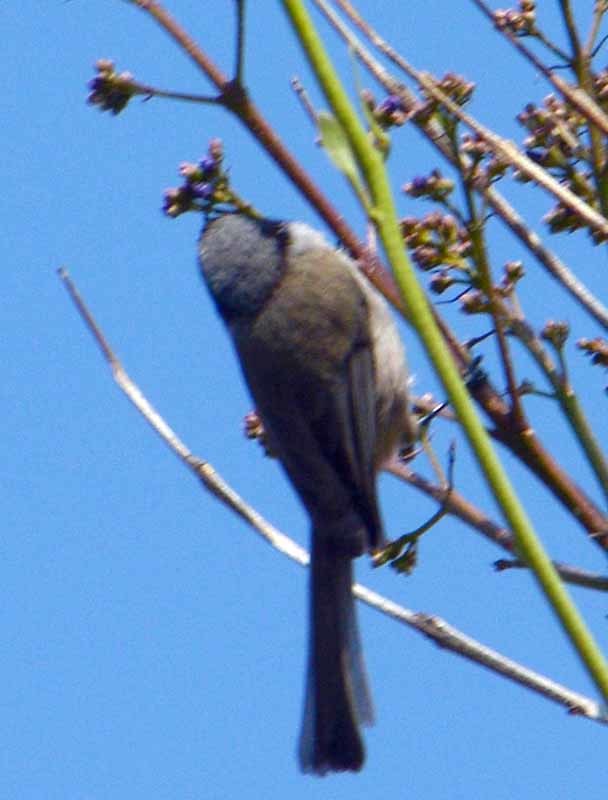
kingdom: Animalia
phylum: Chordata
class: Aves
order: Passeriformes
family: Aegithalidae
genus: Psaltriparus
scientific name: Psaltriparus minimus
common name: American bushtit
